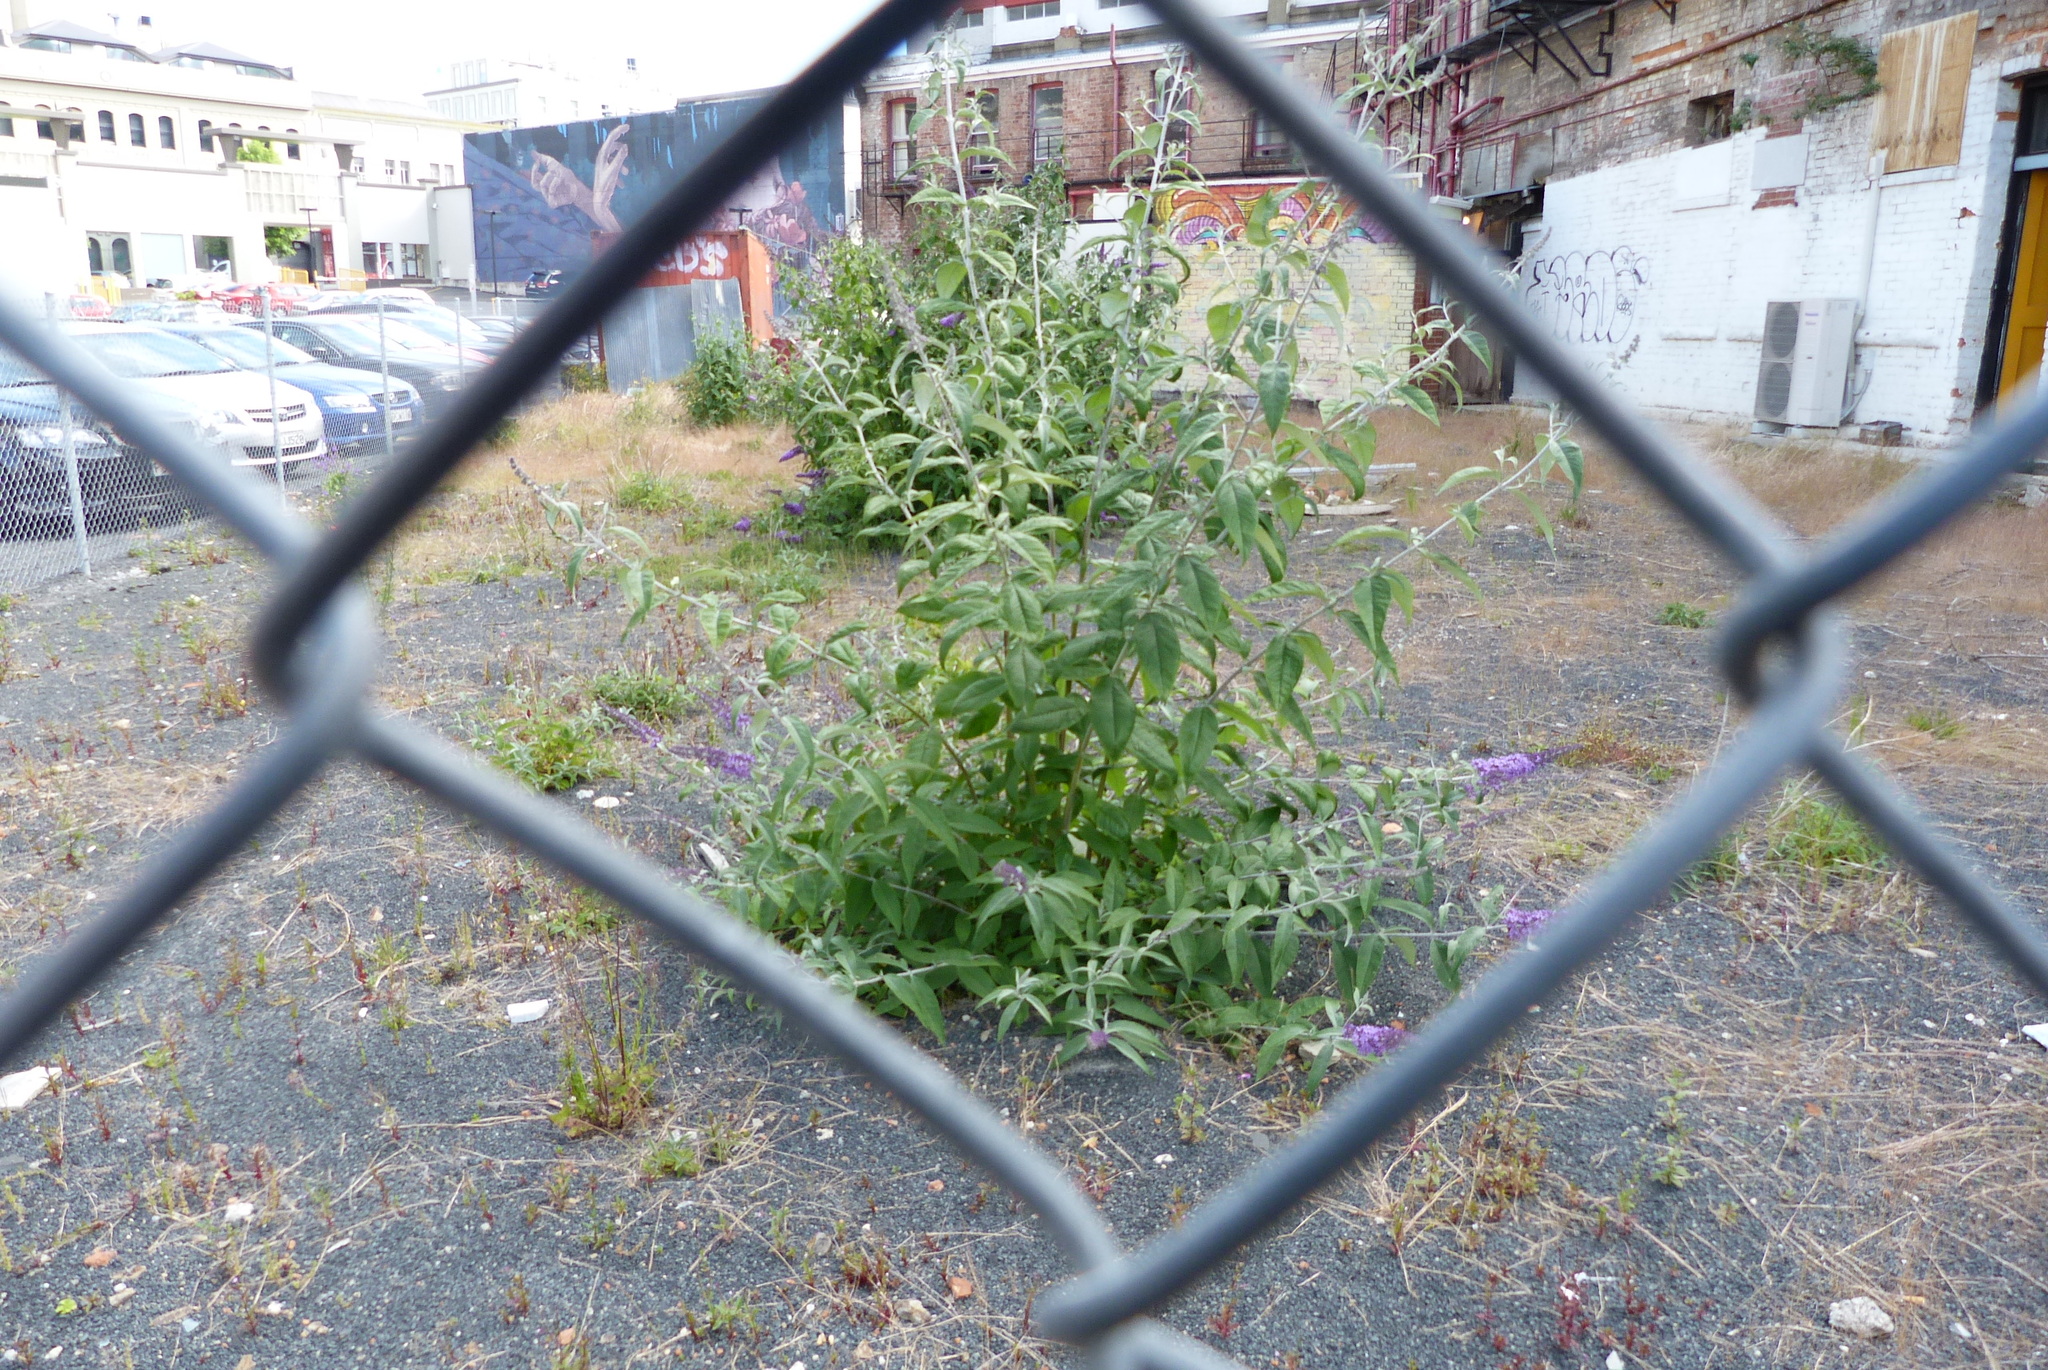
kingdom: Plantae
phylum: Tracheophyta
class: Magnoliopsida
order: Lamiales
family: Scrophulariaceae
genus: Buddleja
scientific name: Buddleja davidii
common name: Butterfly-bush
